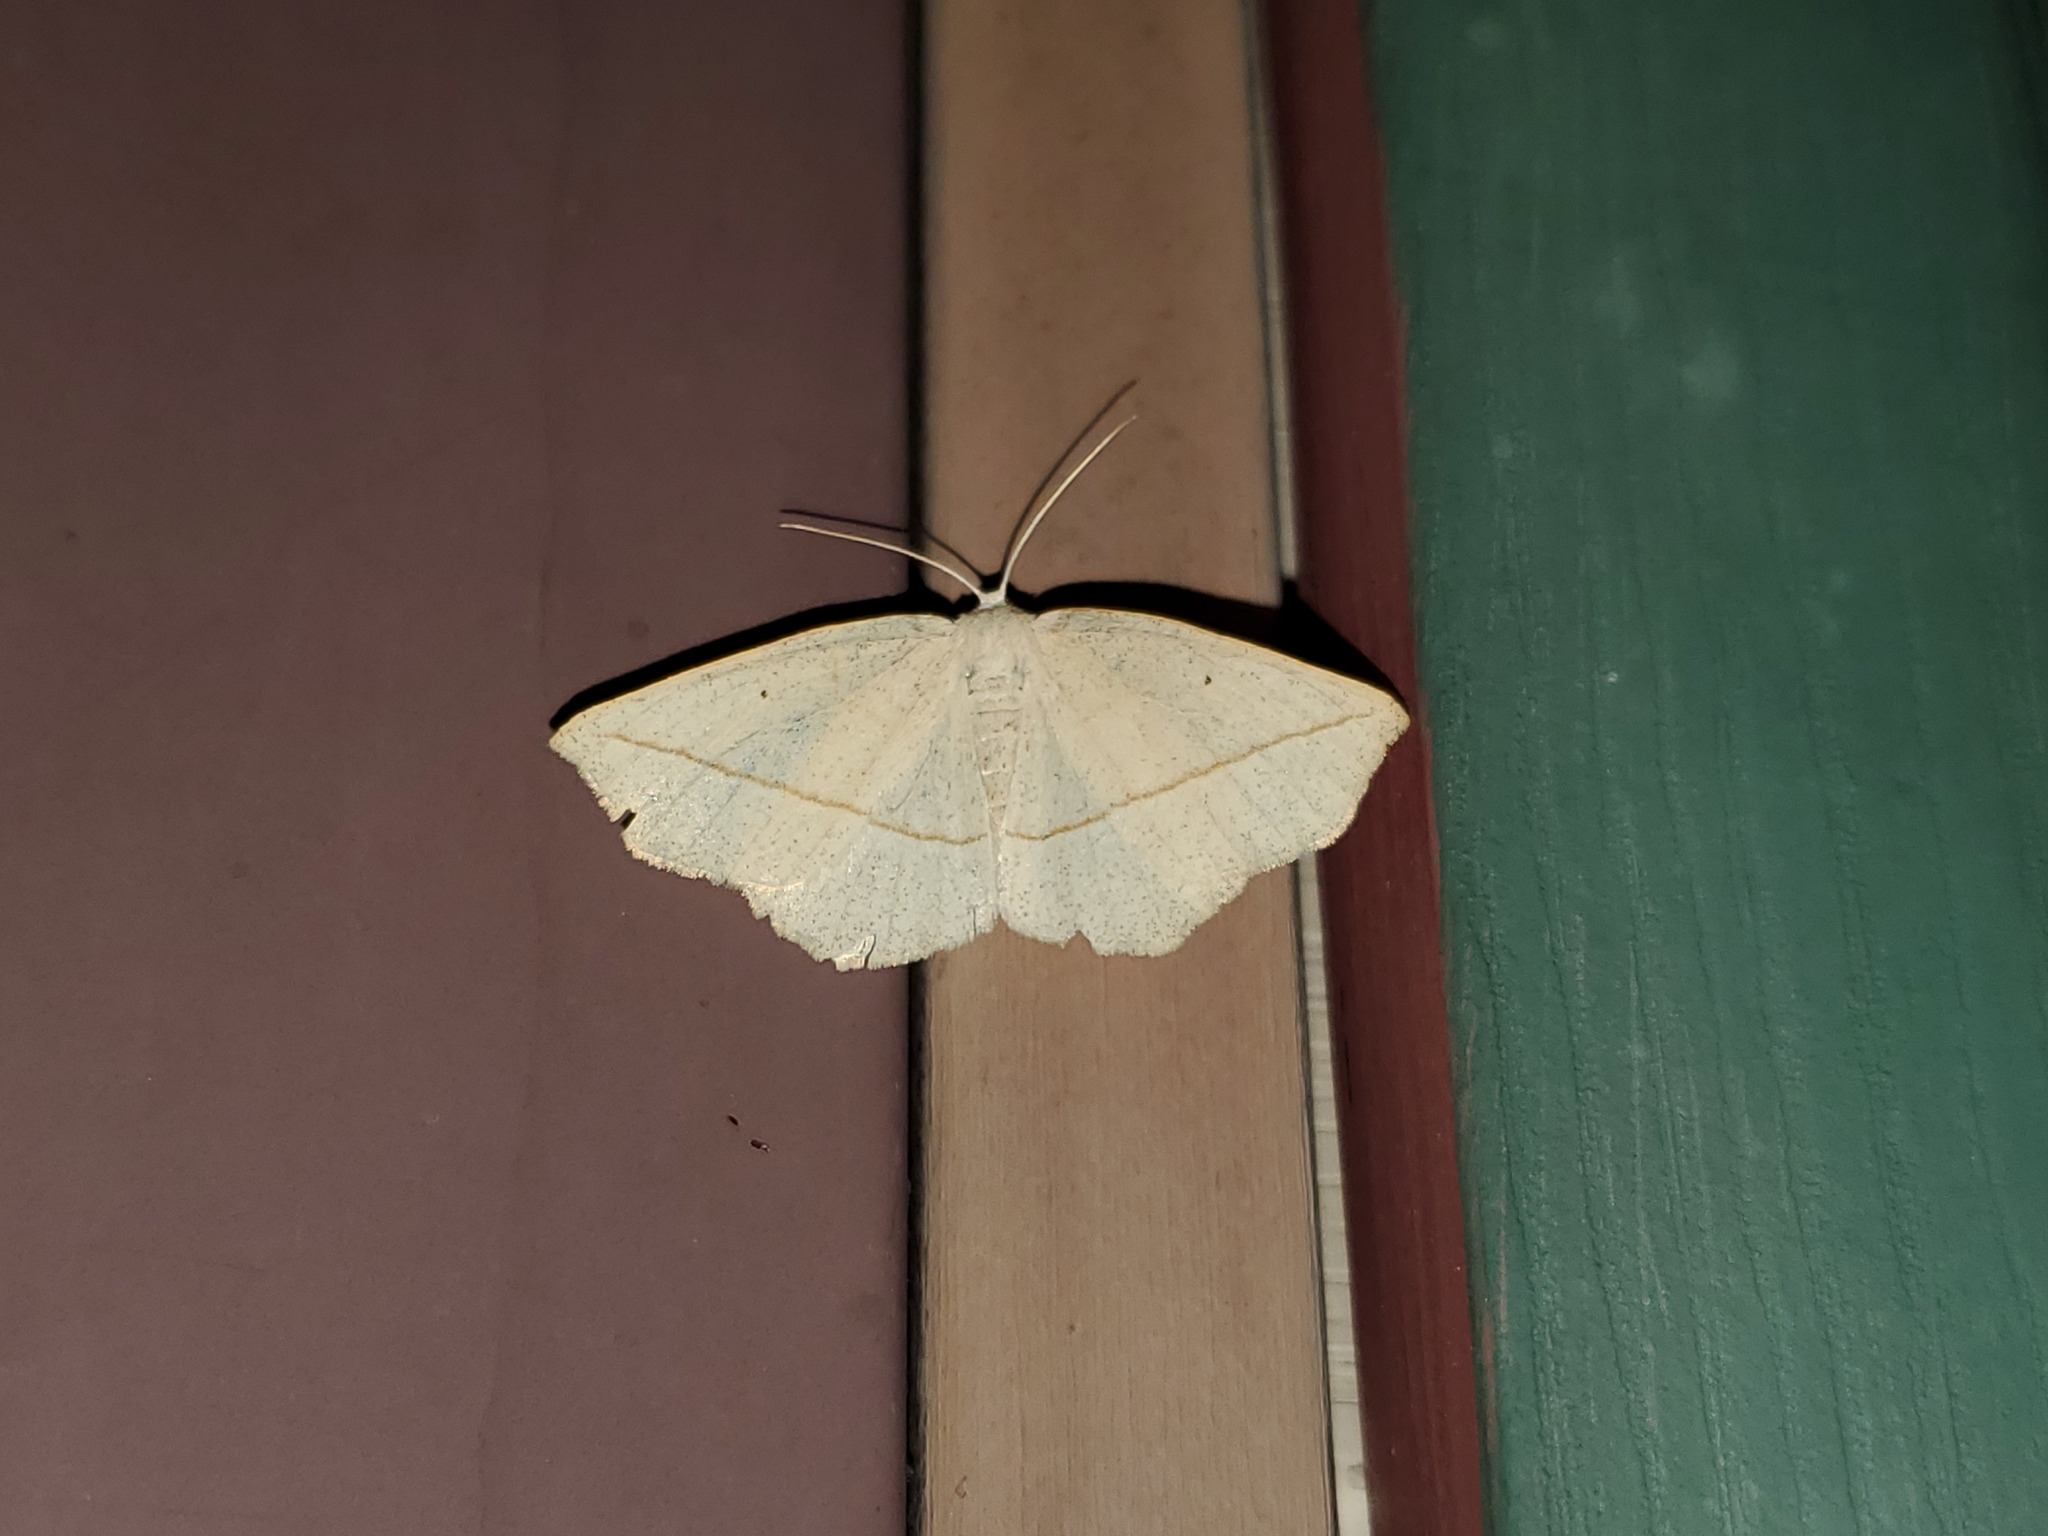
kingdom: Animalia
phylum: Arthropoda
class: Insecta
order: Lepidoptera
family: Geometridae
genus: Eusarca
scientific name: Eusarca confusaria
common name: Confused eusarca
